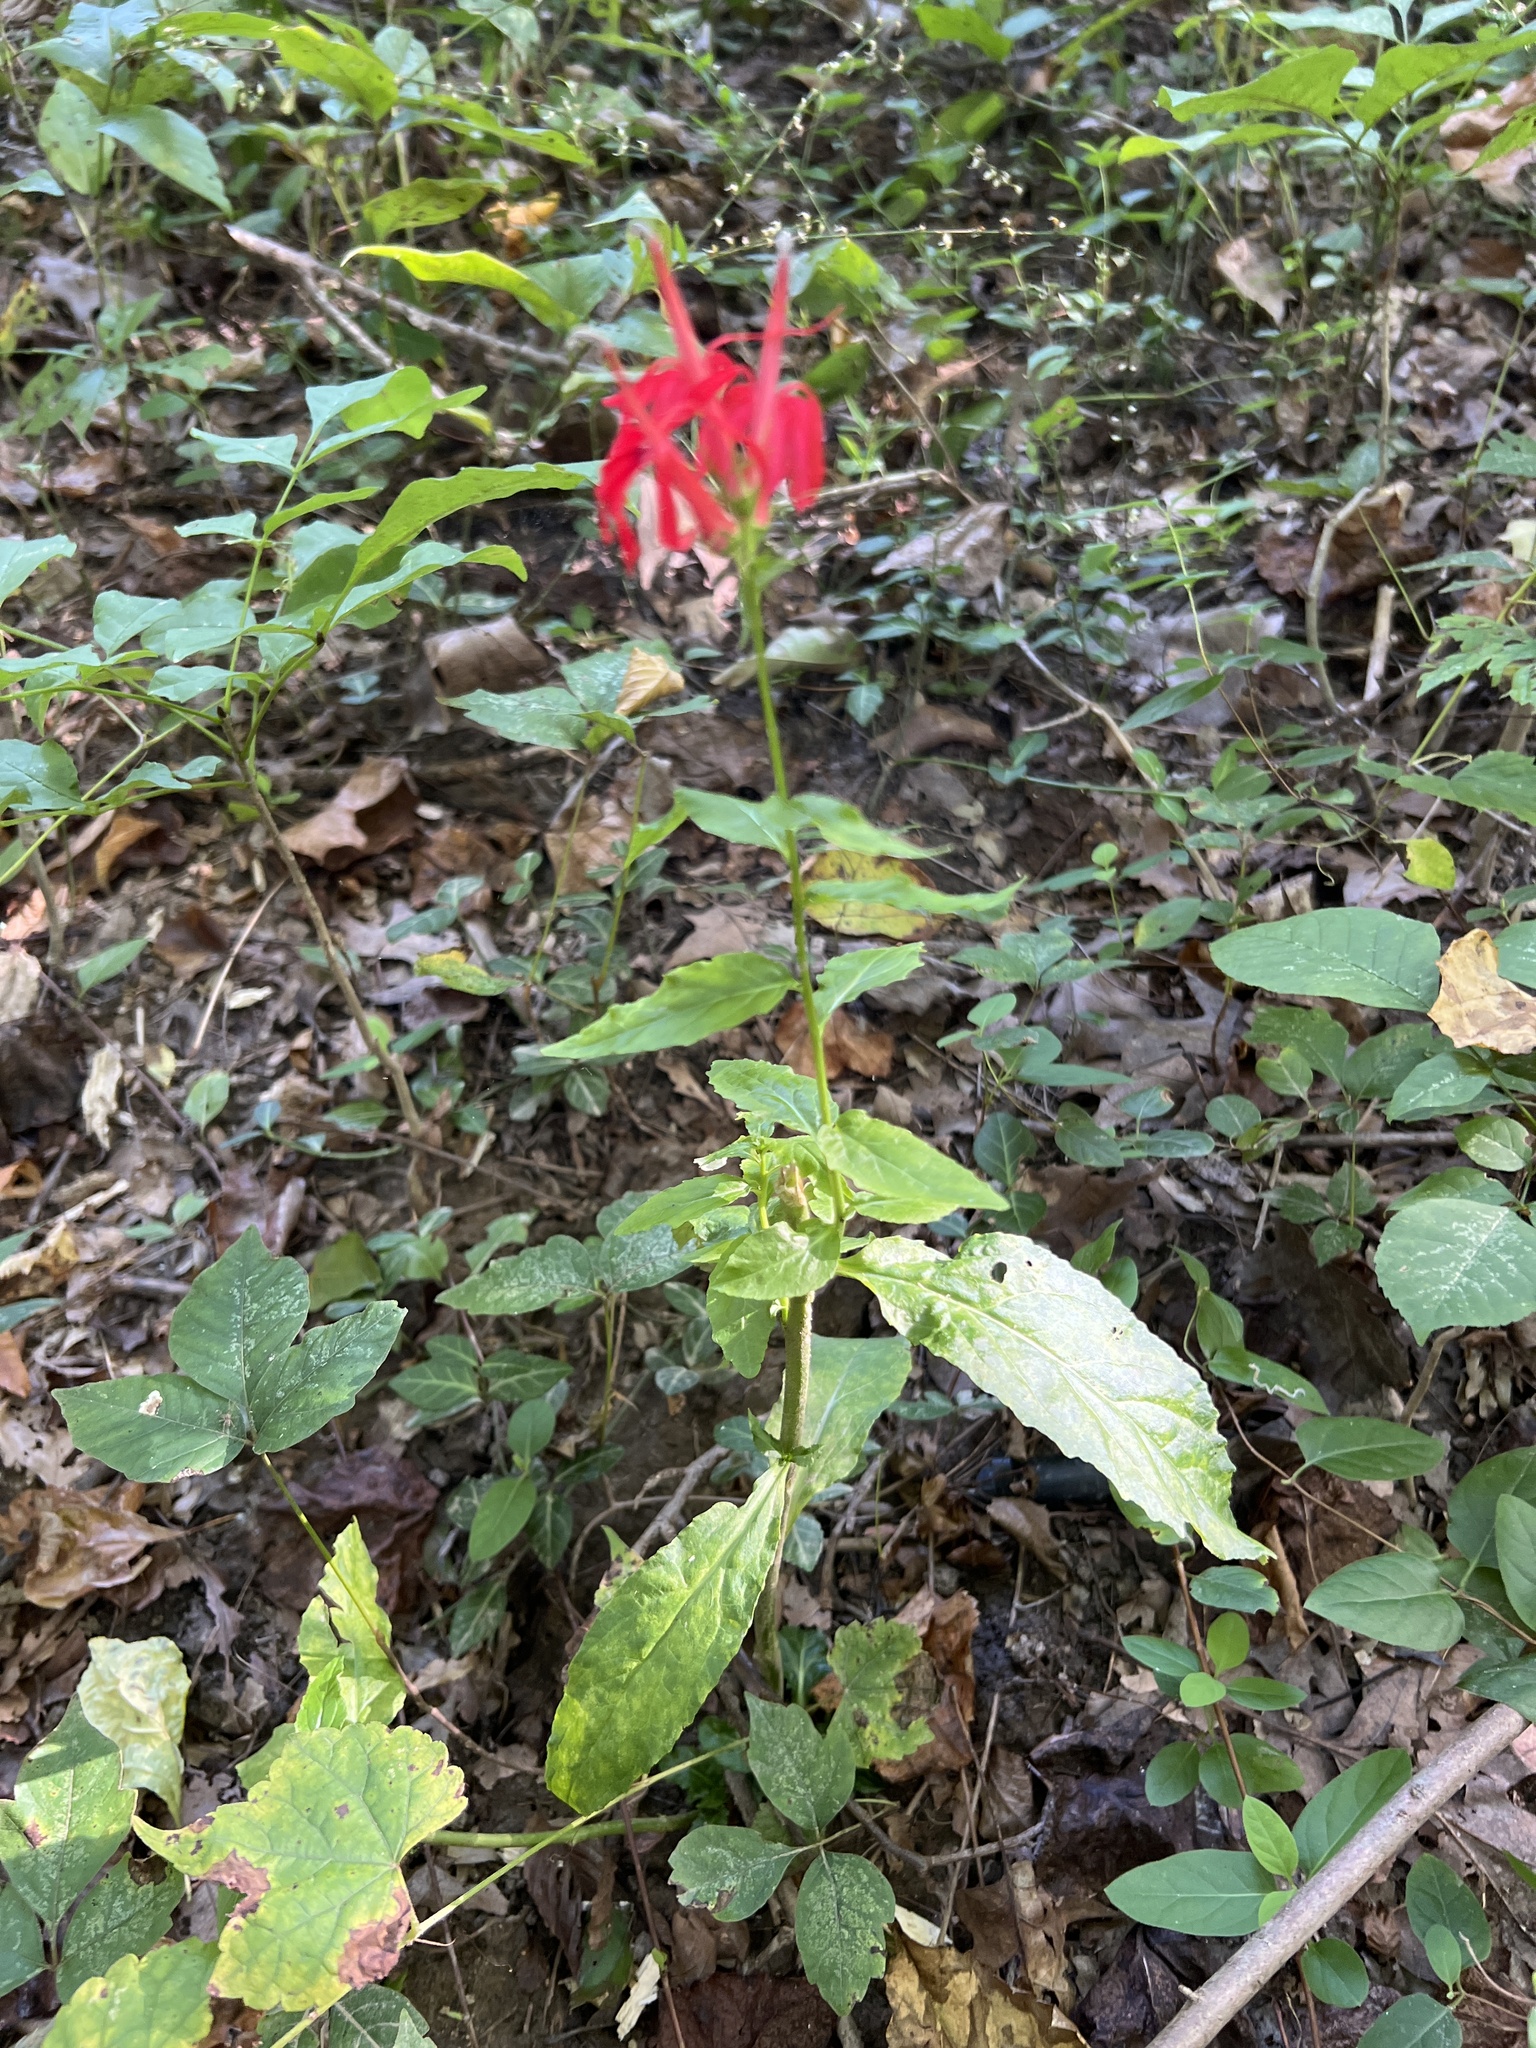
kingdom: Plantae
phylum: Tracheophyta
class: Magnoliopsida
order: Asterales
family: Campanulaceae
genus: Lobelia
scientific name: Lobelia cardinalis
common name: Cardinal flower
